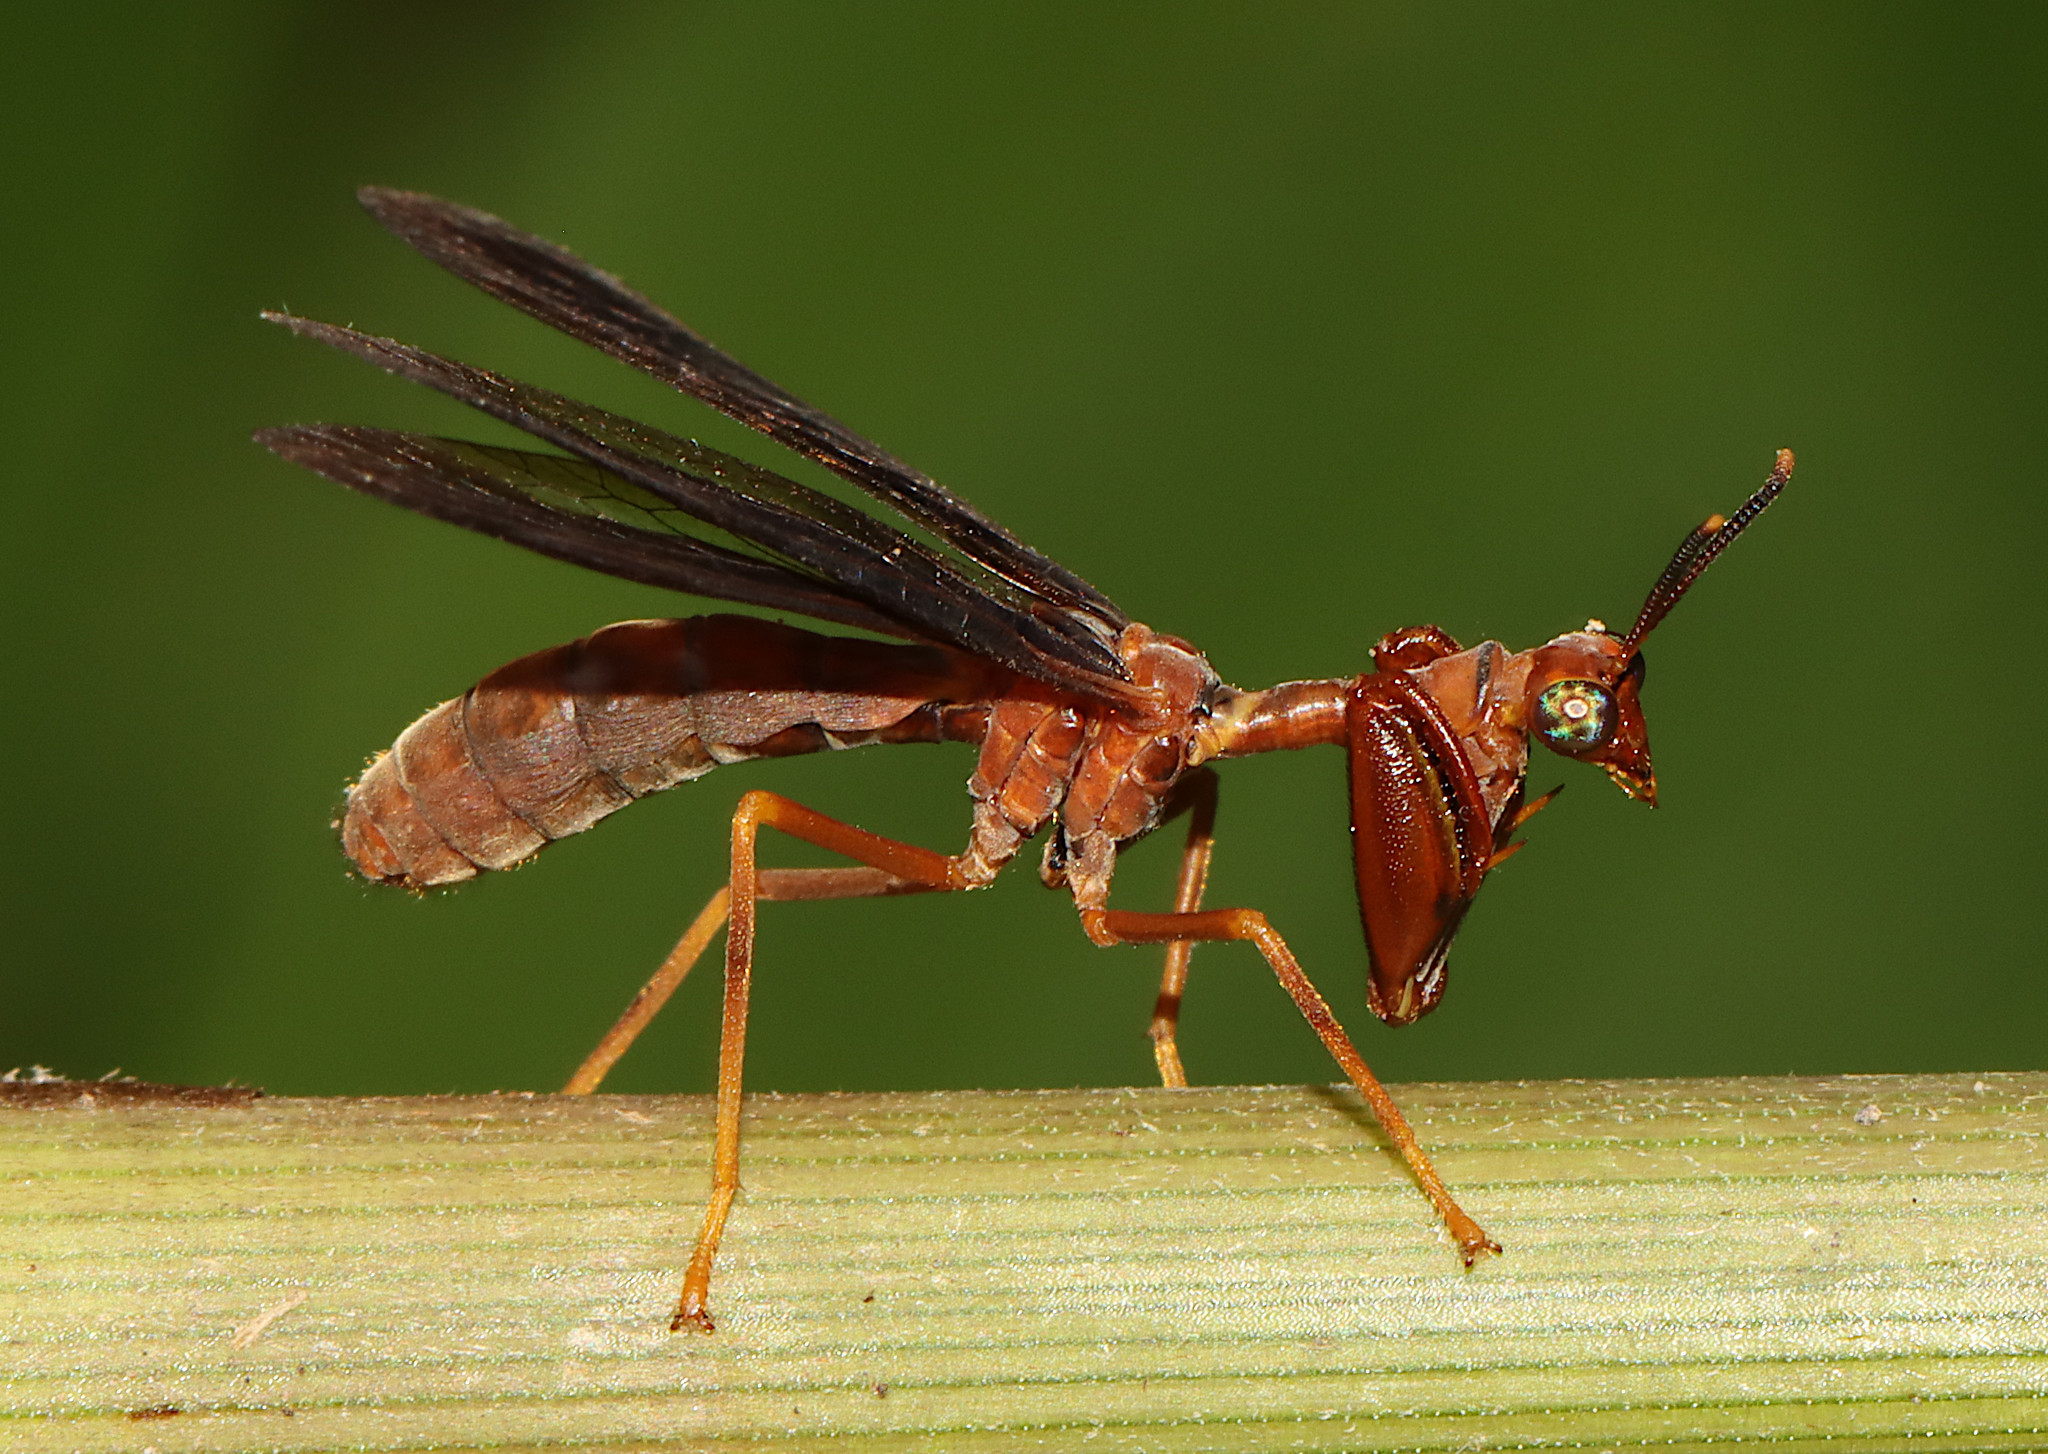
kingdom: Animalia
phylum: Arthropoda
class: Insecta
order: Neuroptera
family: Mantispidae
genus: Climaciella
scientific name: Climaciella brunnea
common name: Brown wasp mantidfly
